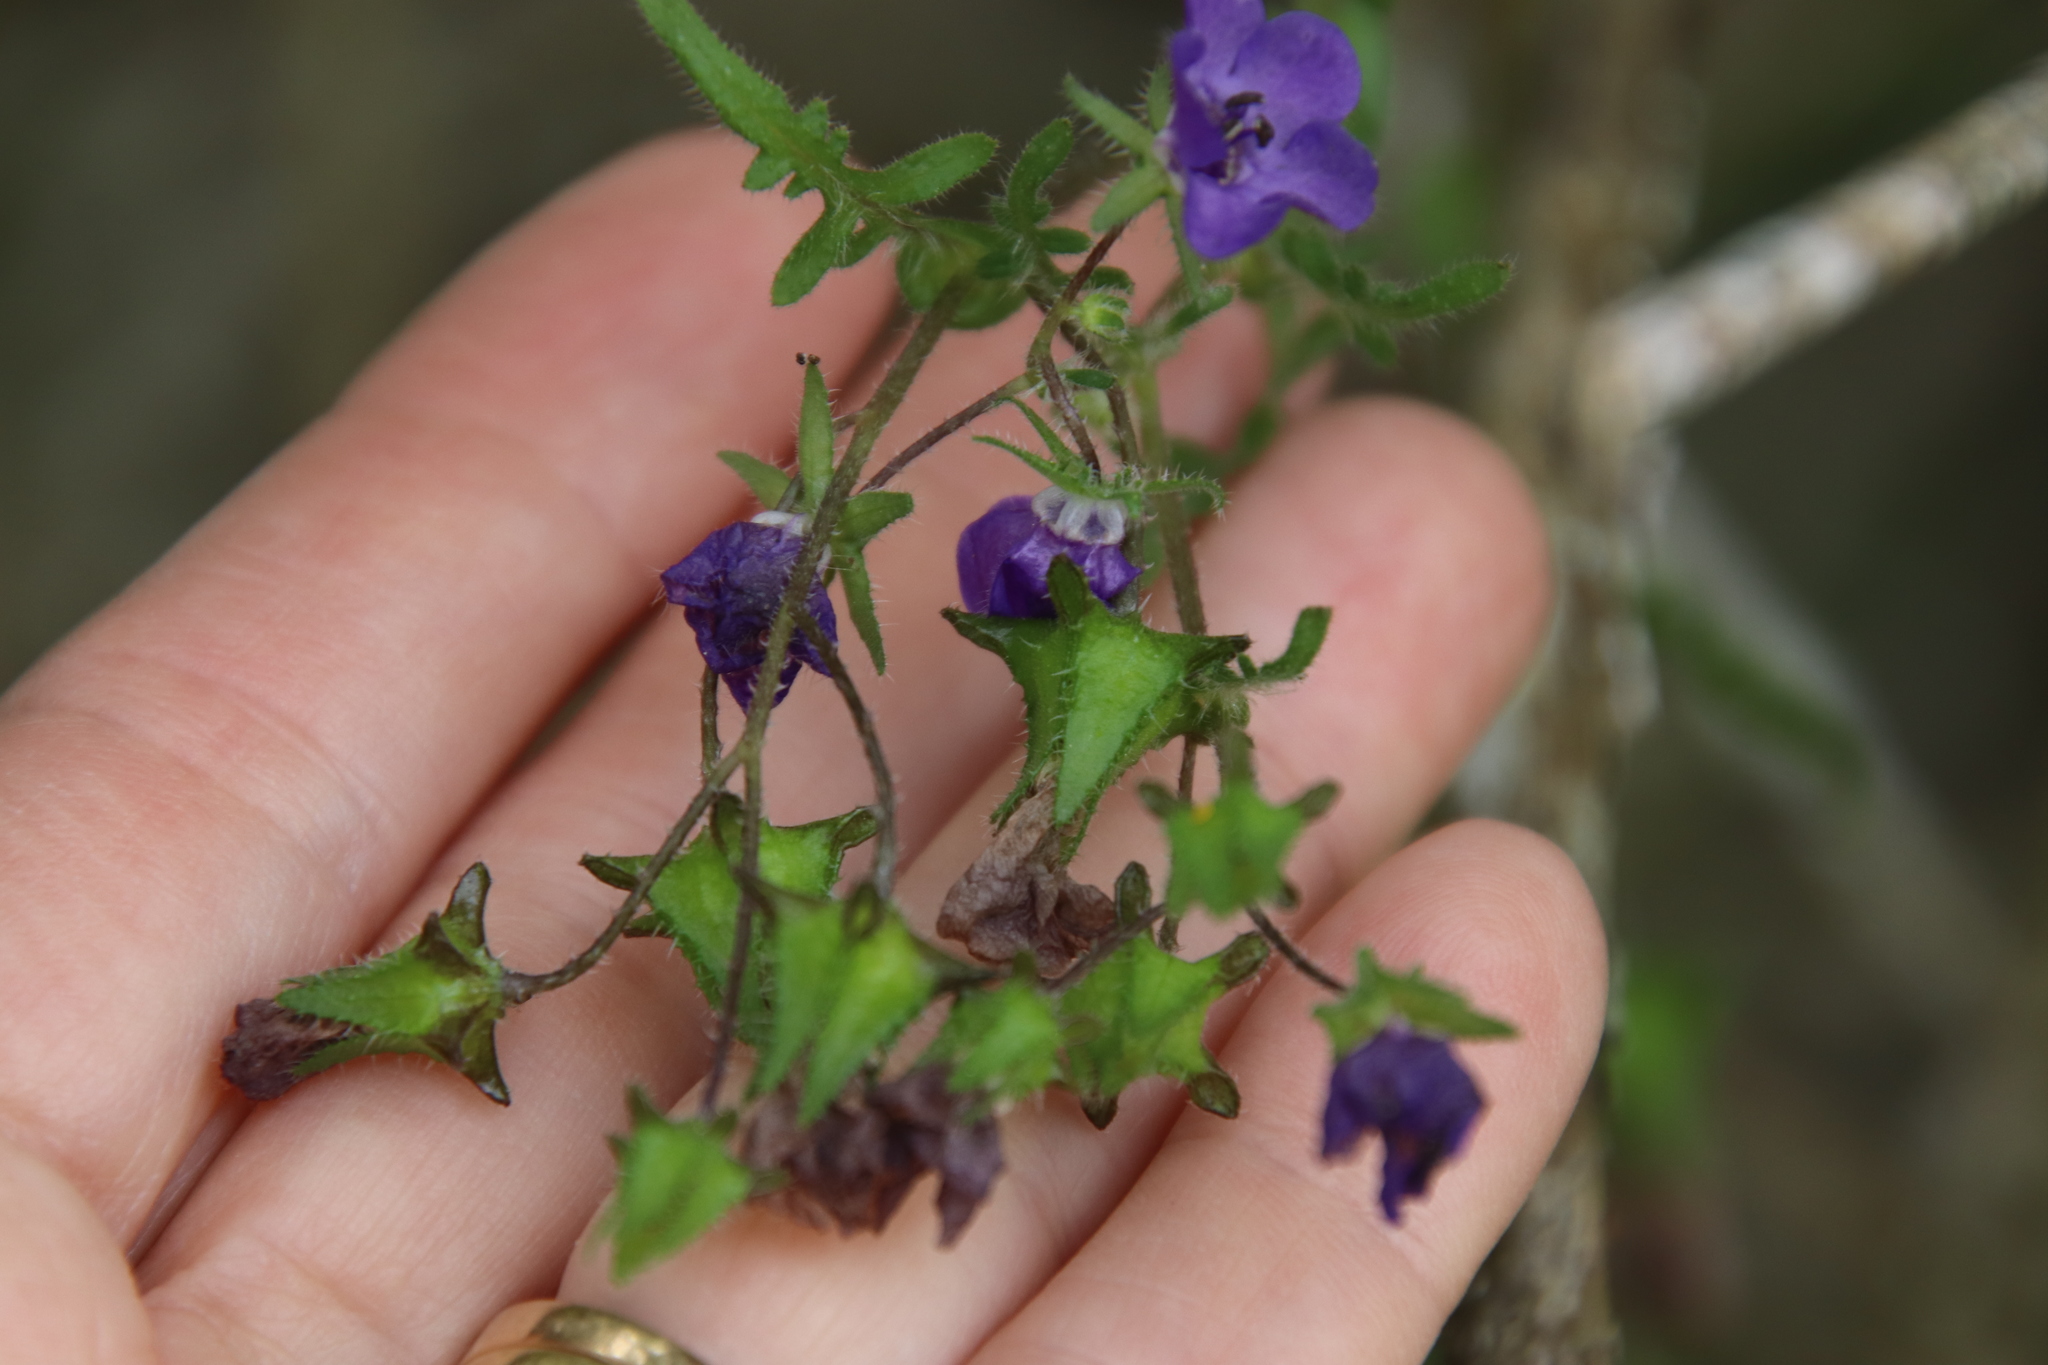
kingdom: Plantae
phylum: Tracheophyta
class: Magnoliopsida
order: Boraginales
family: Hydrophyllaceae
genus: Pholistoma
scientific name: Pholistoma auritum
